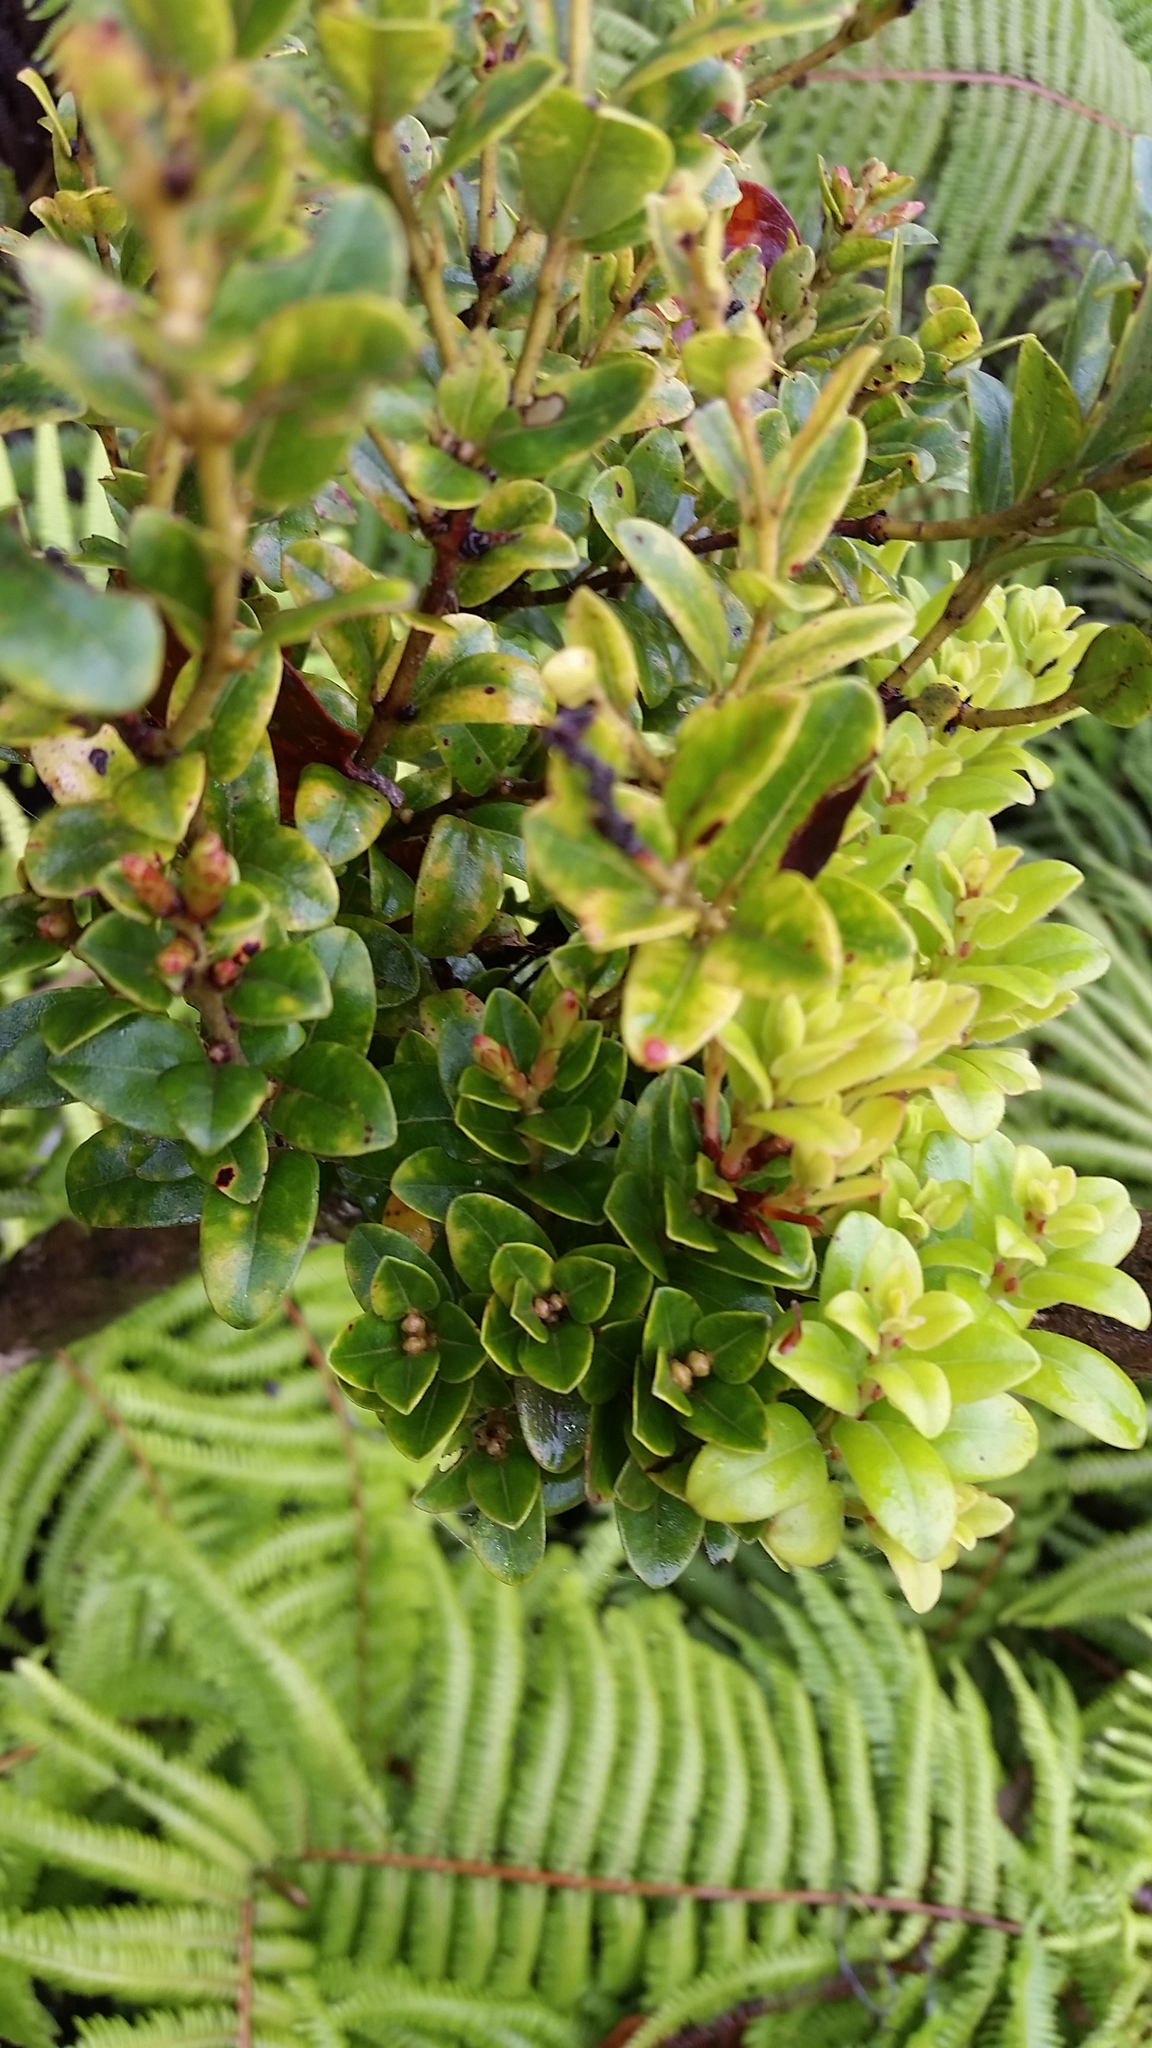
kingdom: Plantae
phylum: Tracheophyta
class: Magnoliopsida
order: Myrtales
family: Myrtaceae
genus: Metrosideros
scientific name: Metrosideros polymorpha
